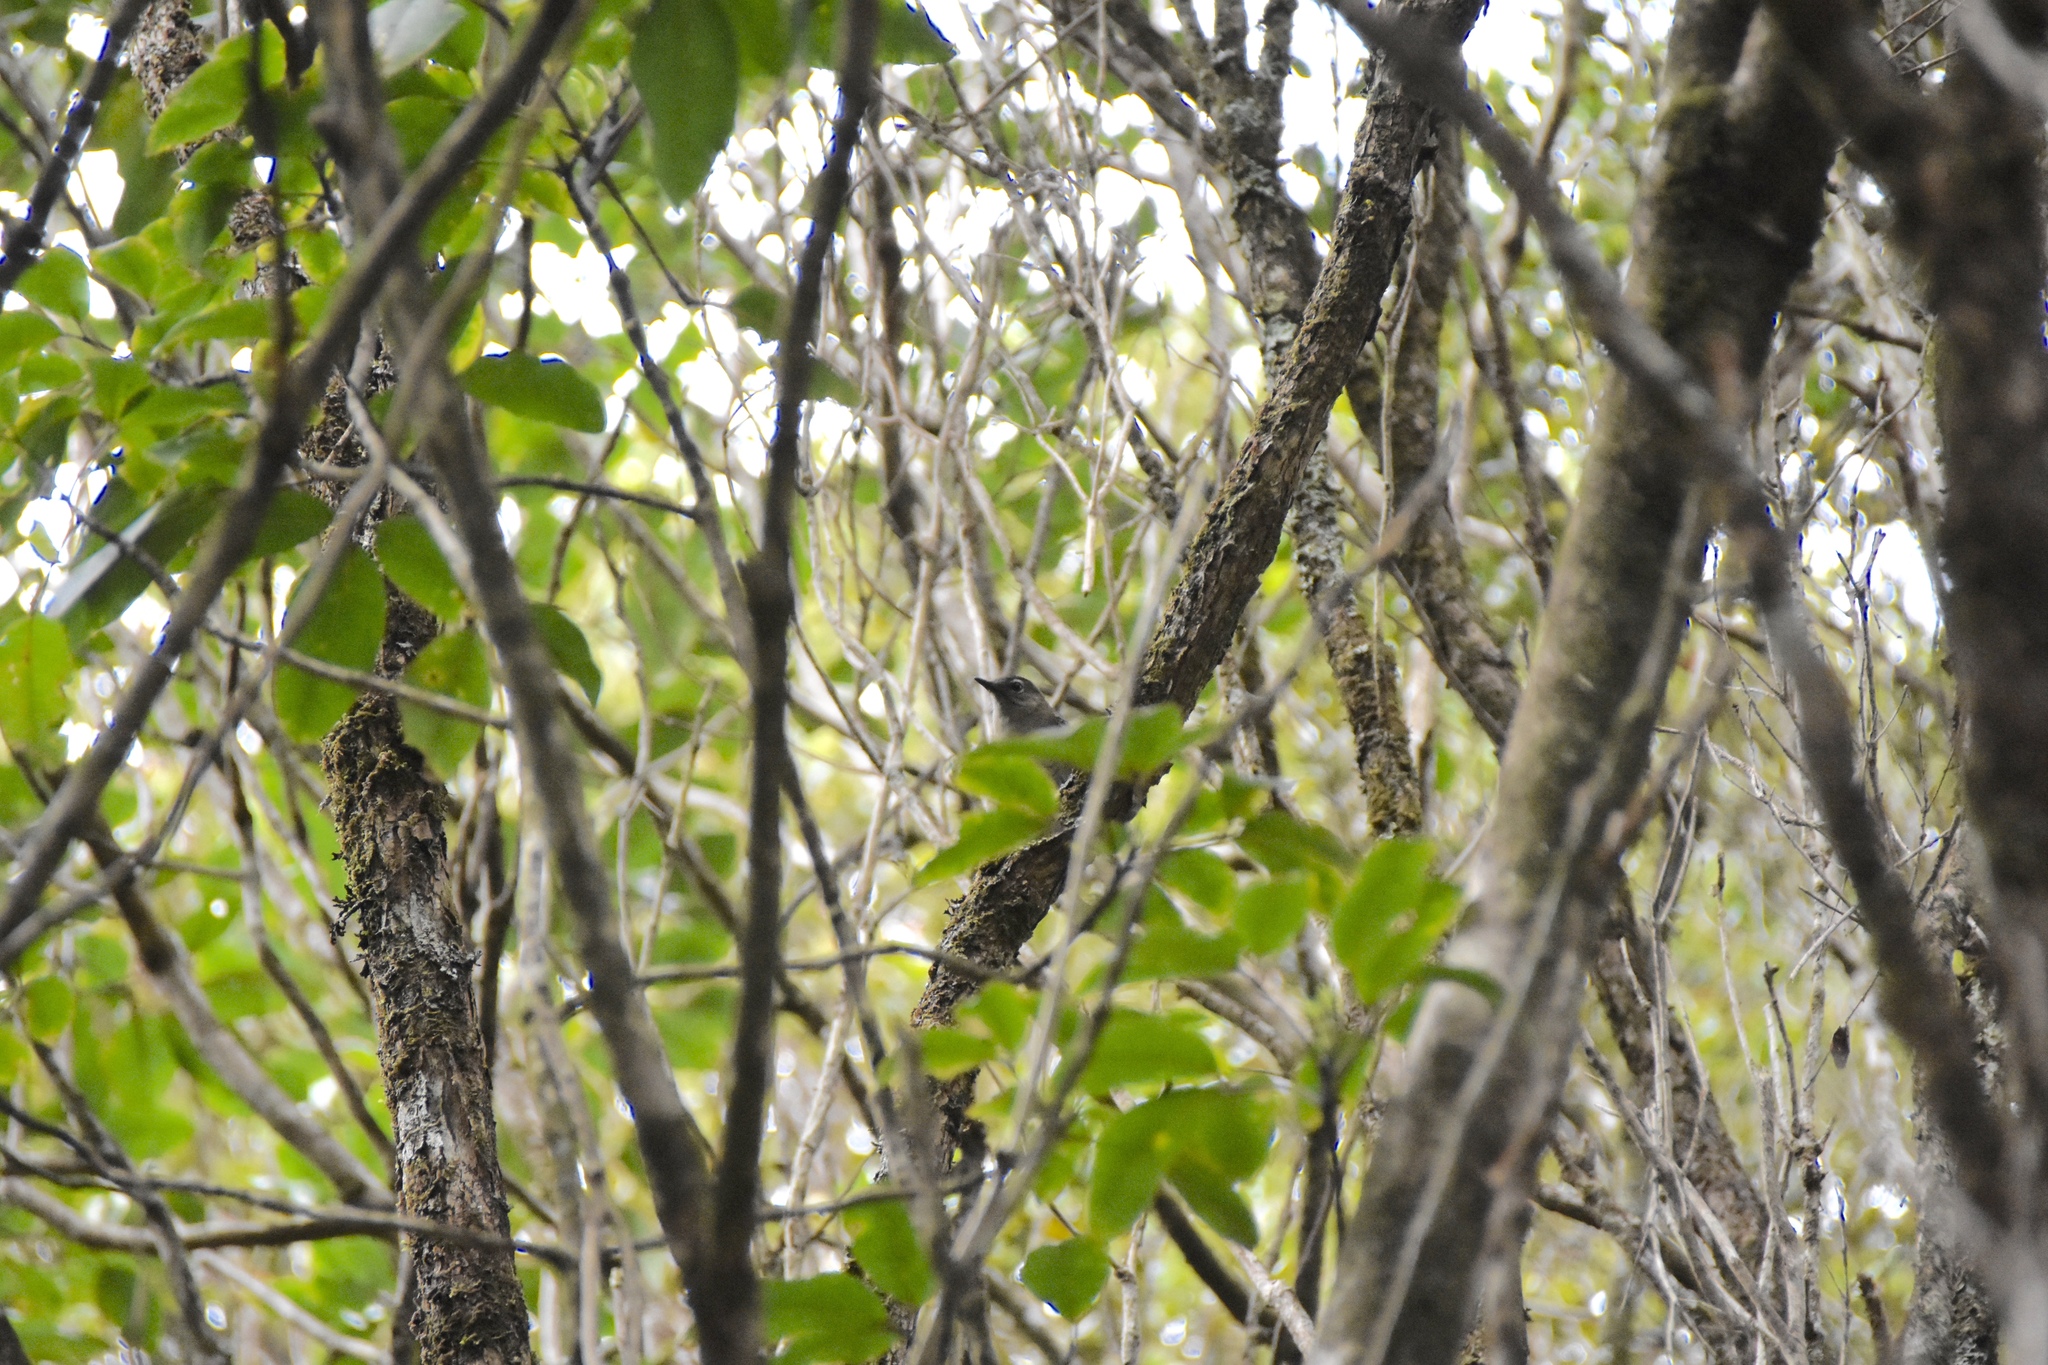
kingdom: Animalia
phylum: Chordata
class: Aves
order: Passeriformes
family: Turdidae
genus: Myadestes
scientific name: Myadestes palmeri
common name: Puaiohi
